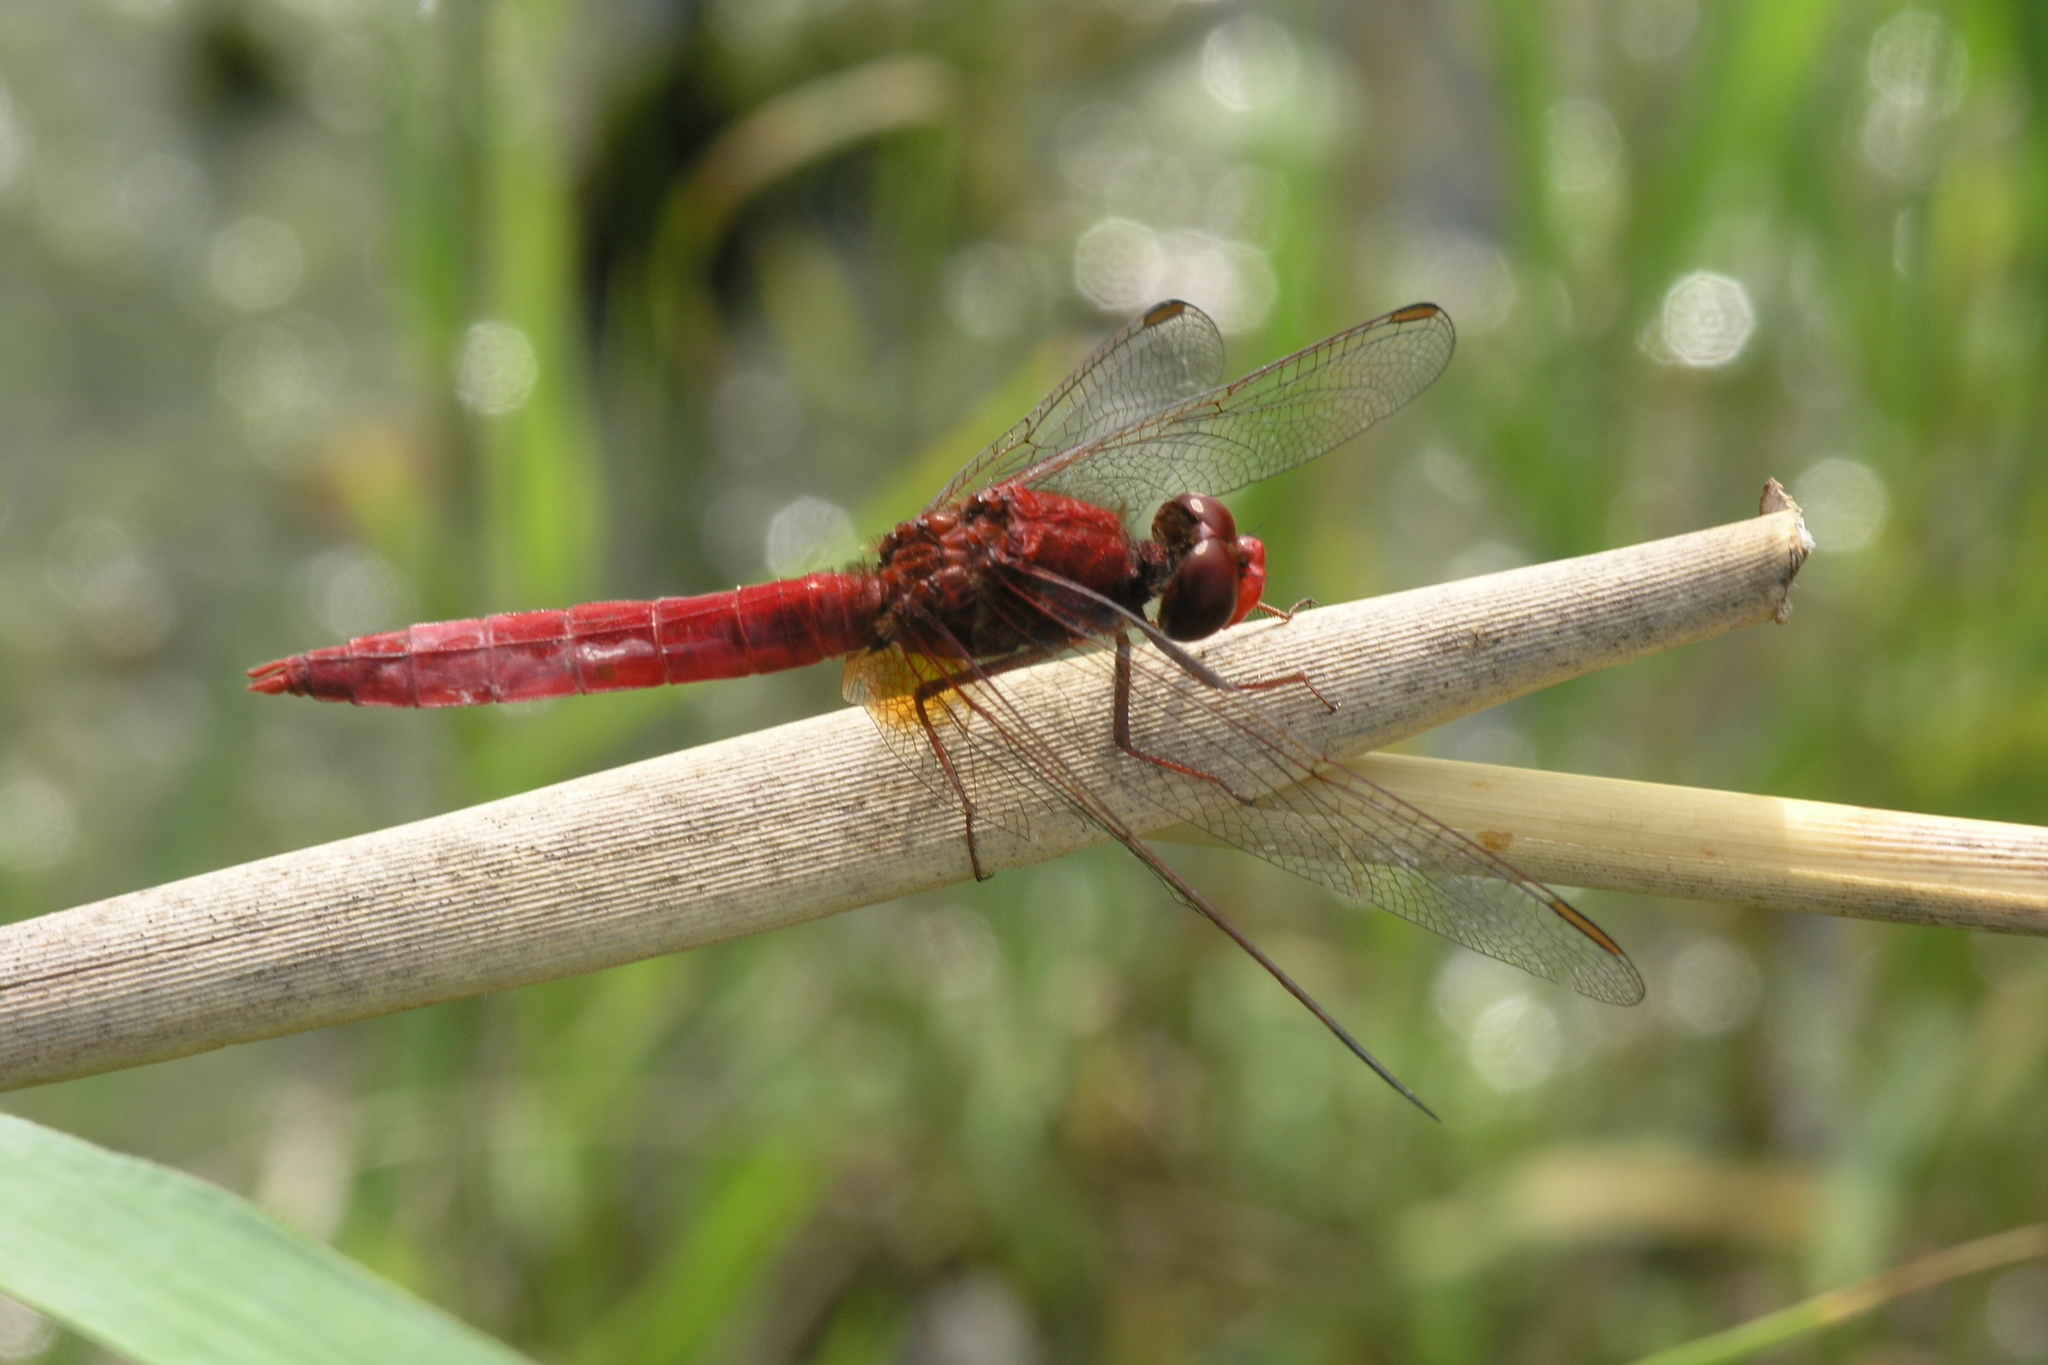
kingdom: Animalia
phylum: Arthropoda
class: Insecta
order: Odonata
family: Libellulidae
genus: Crocothemis
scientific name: Crocothemis erythraea
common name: Scarlet dragonfly
